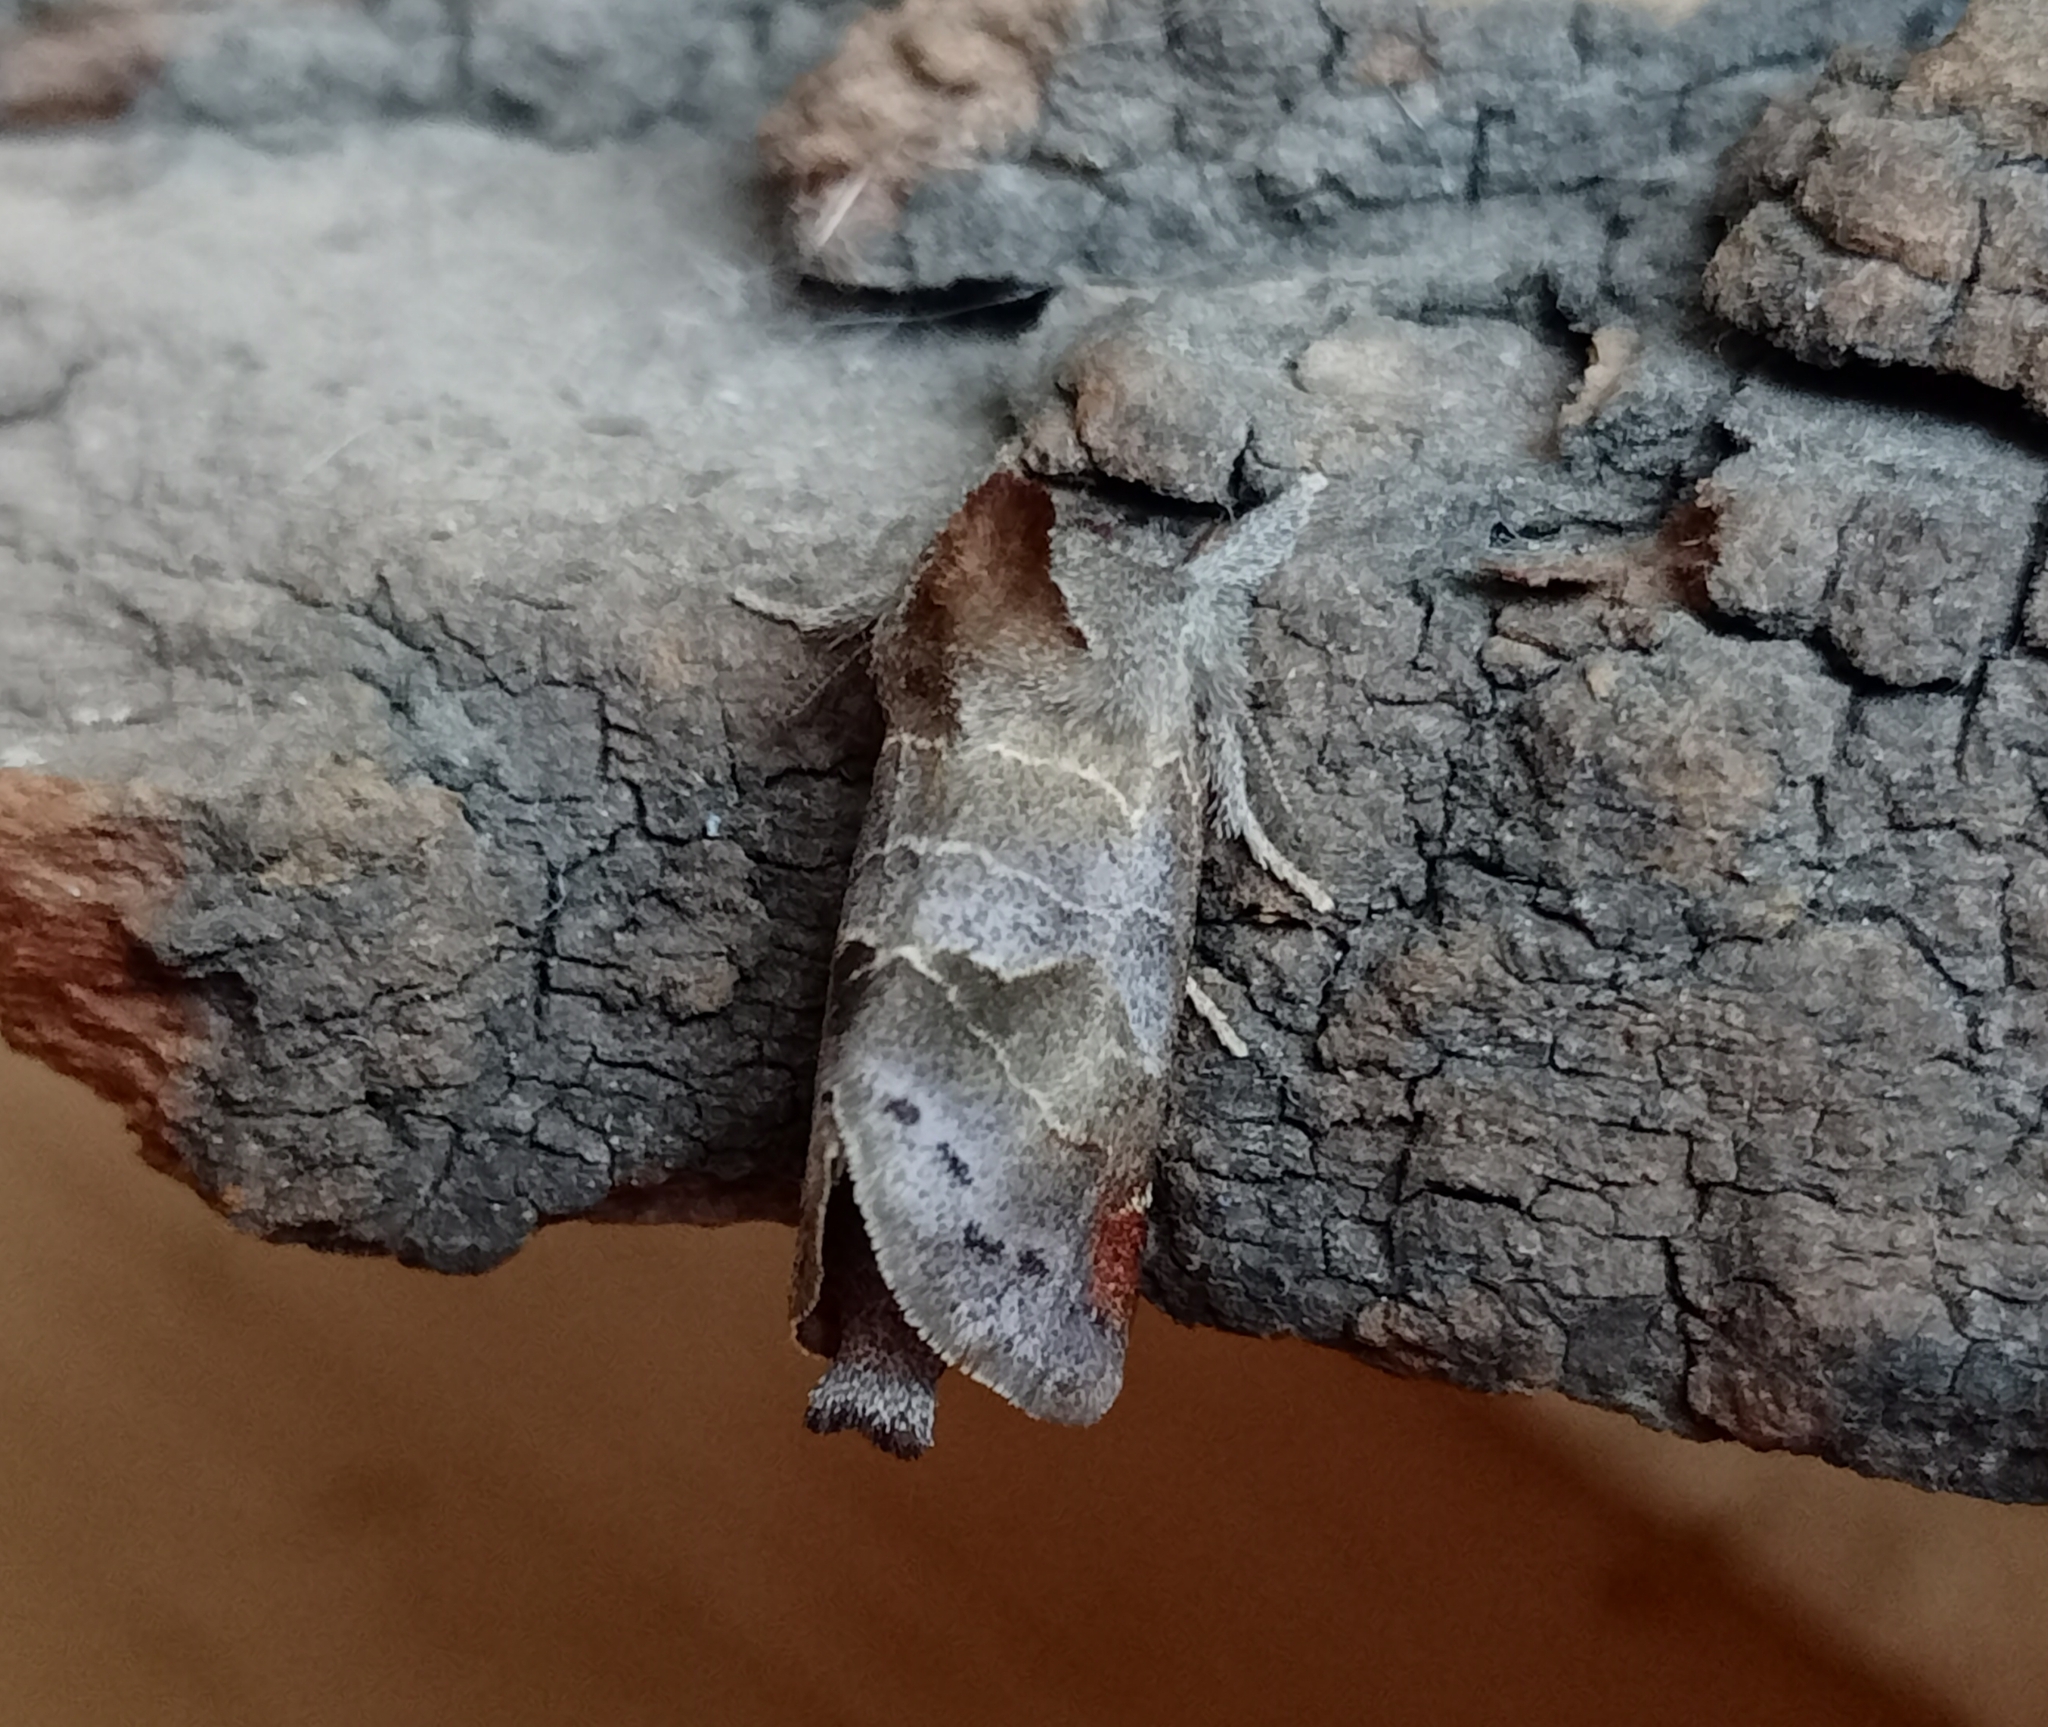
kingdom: Animalia
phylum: Arthropoda
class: Insecta
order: Lepidoptera
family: Notodontidae
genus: Clostera
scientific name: Clostera pigra
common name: Small chocolate-tip
